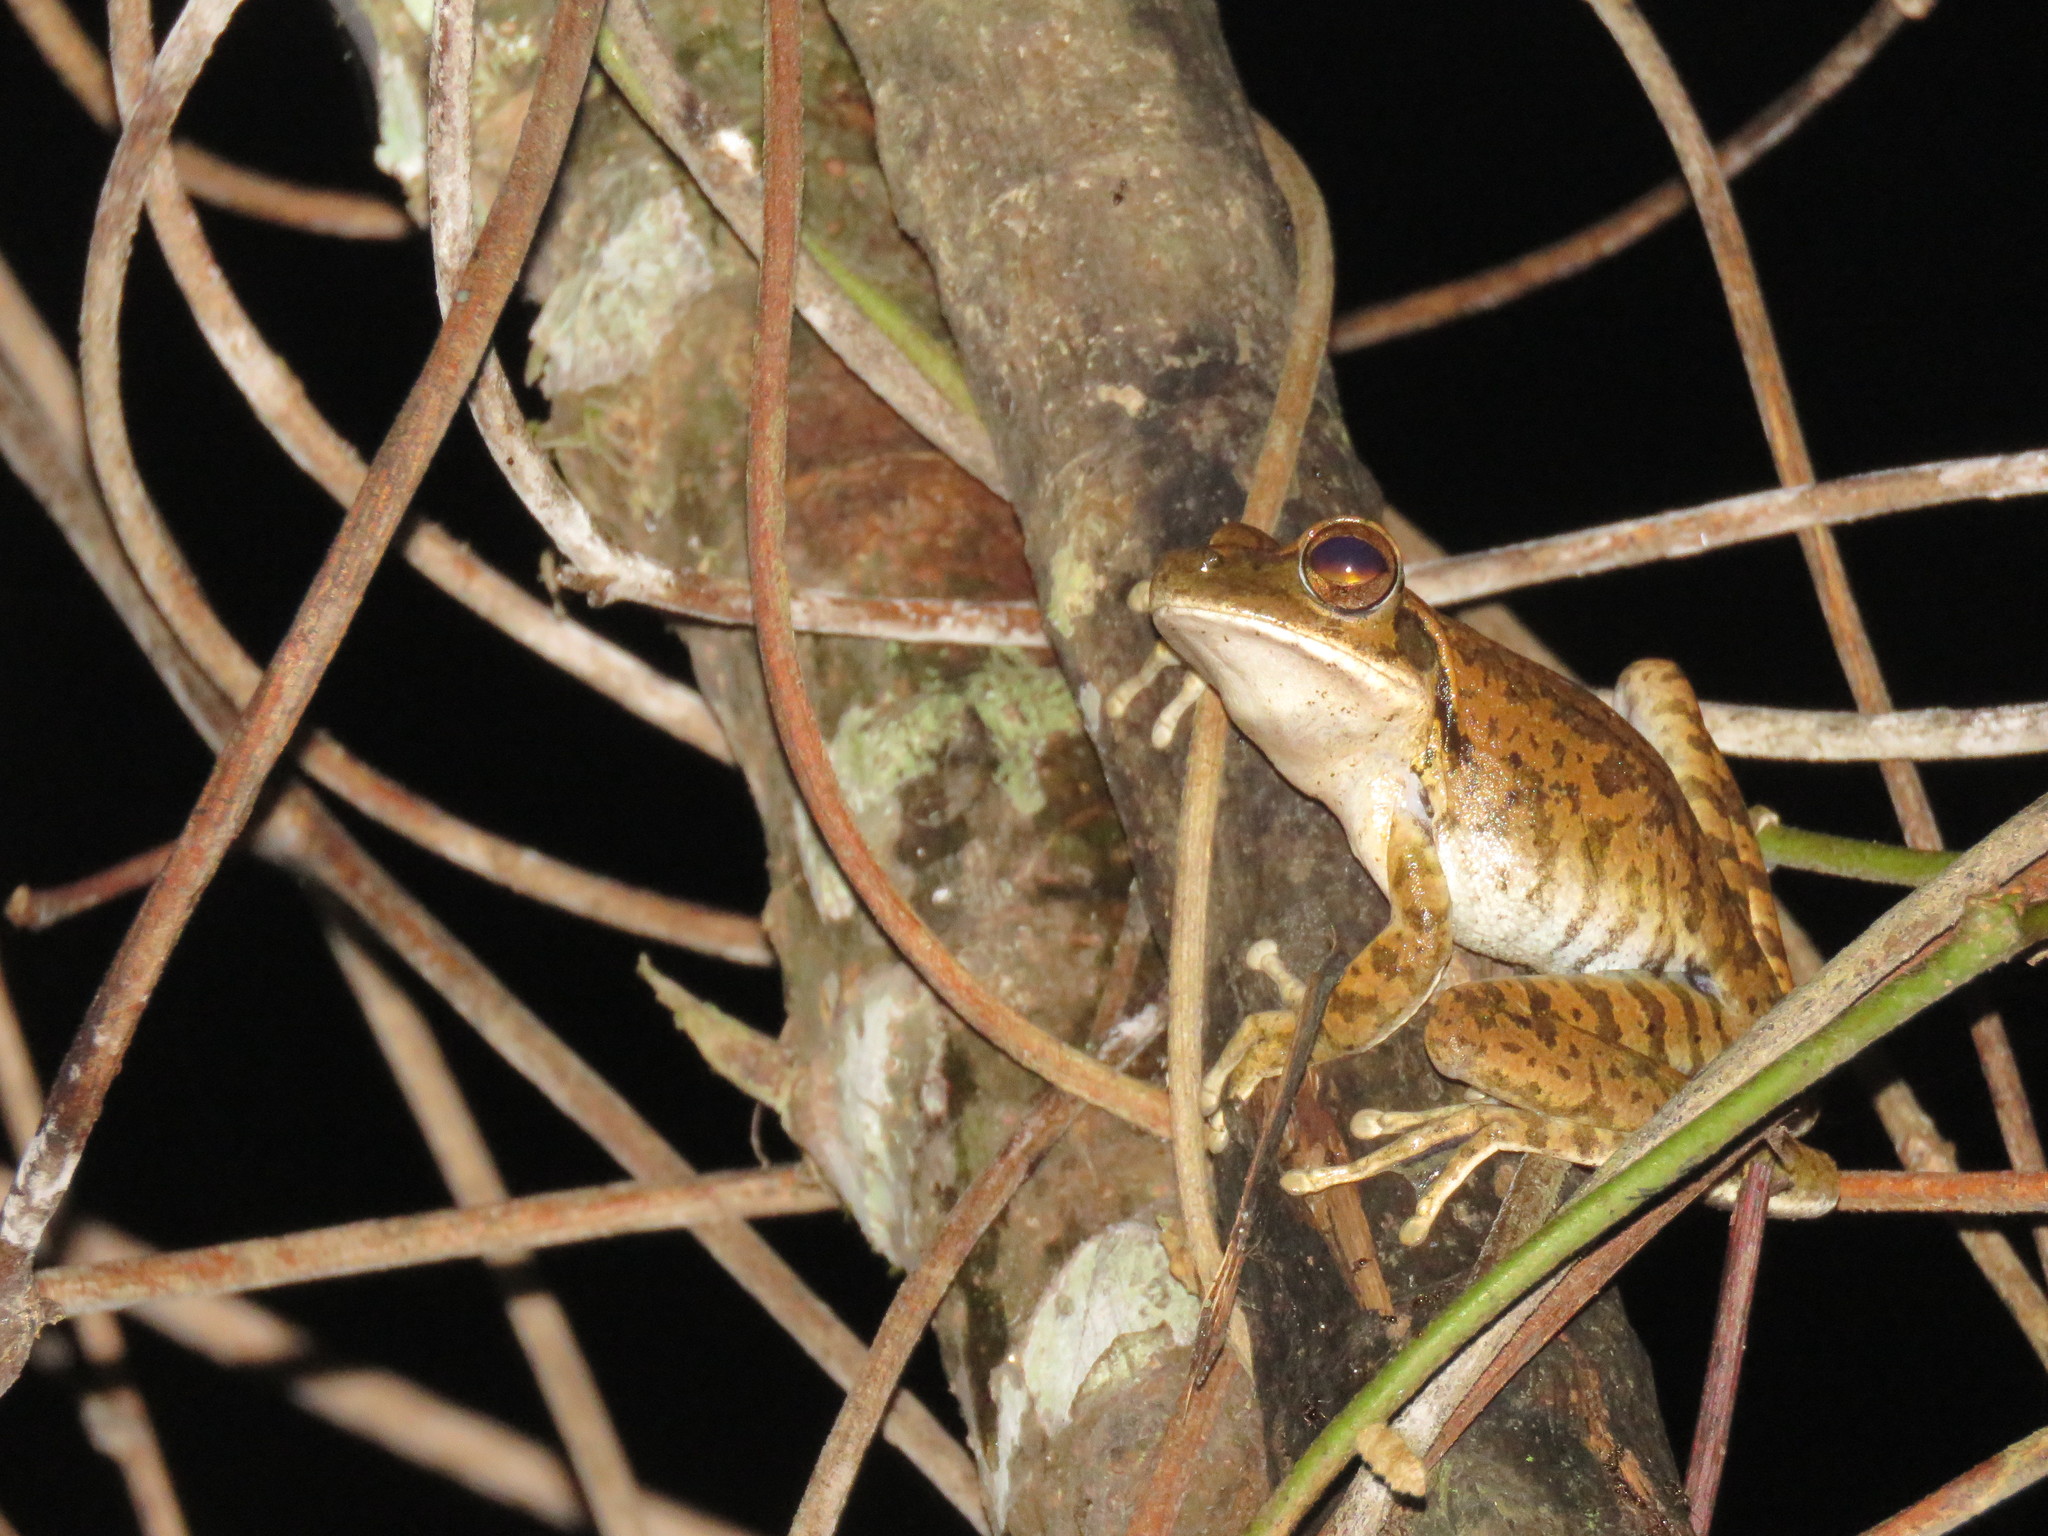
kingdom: Animalia
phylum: Chordata
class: Amphibia
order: Anura
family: Hylidae
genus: Boana
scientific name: Boana raniceps
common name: Chaco treefrog
